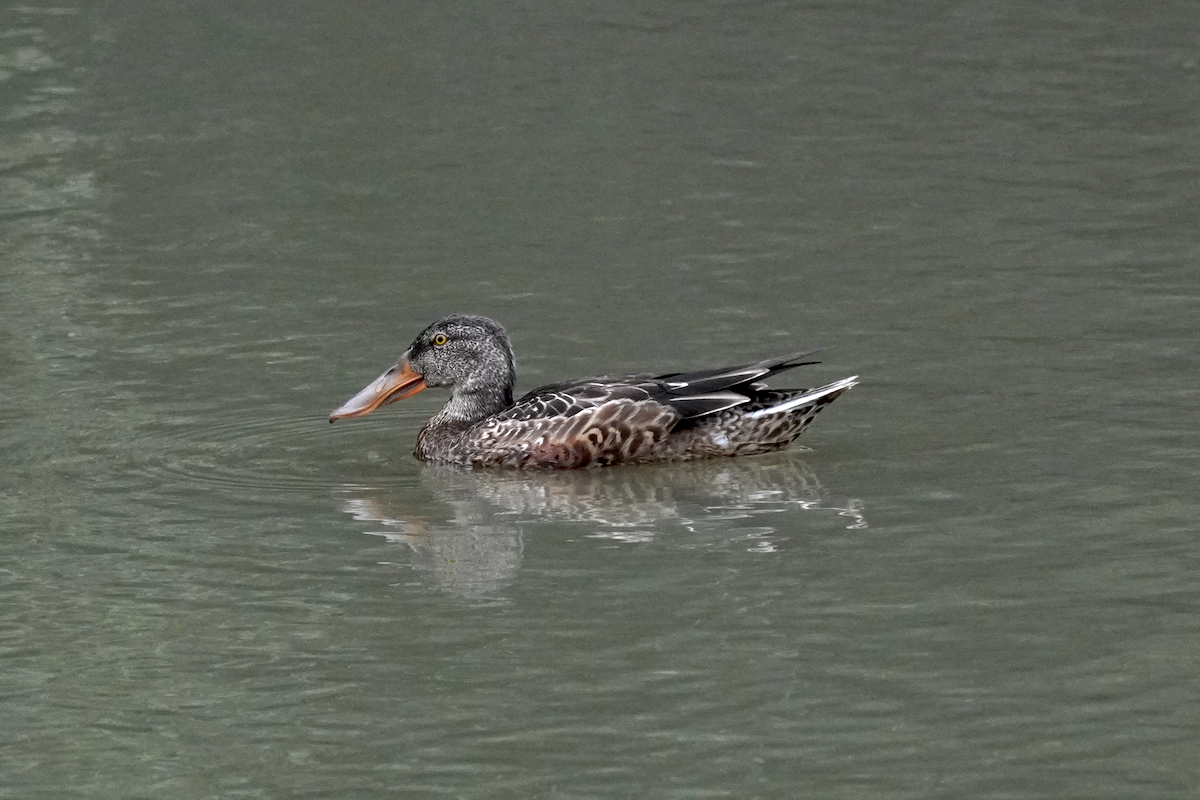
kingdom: Animalia
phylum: Chordata
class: Aves
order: Anseriformes
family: Anatidae
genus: Spatula
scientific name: Spatula clypeata
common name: Northern shoveler
